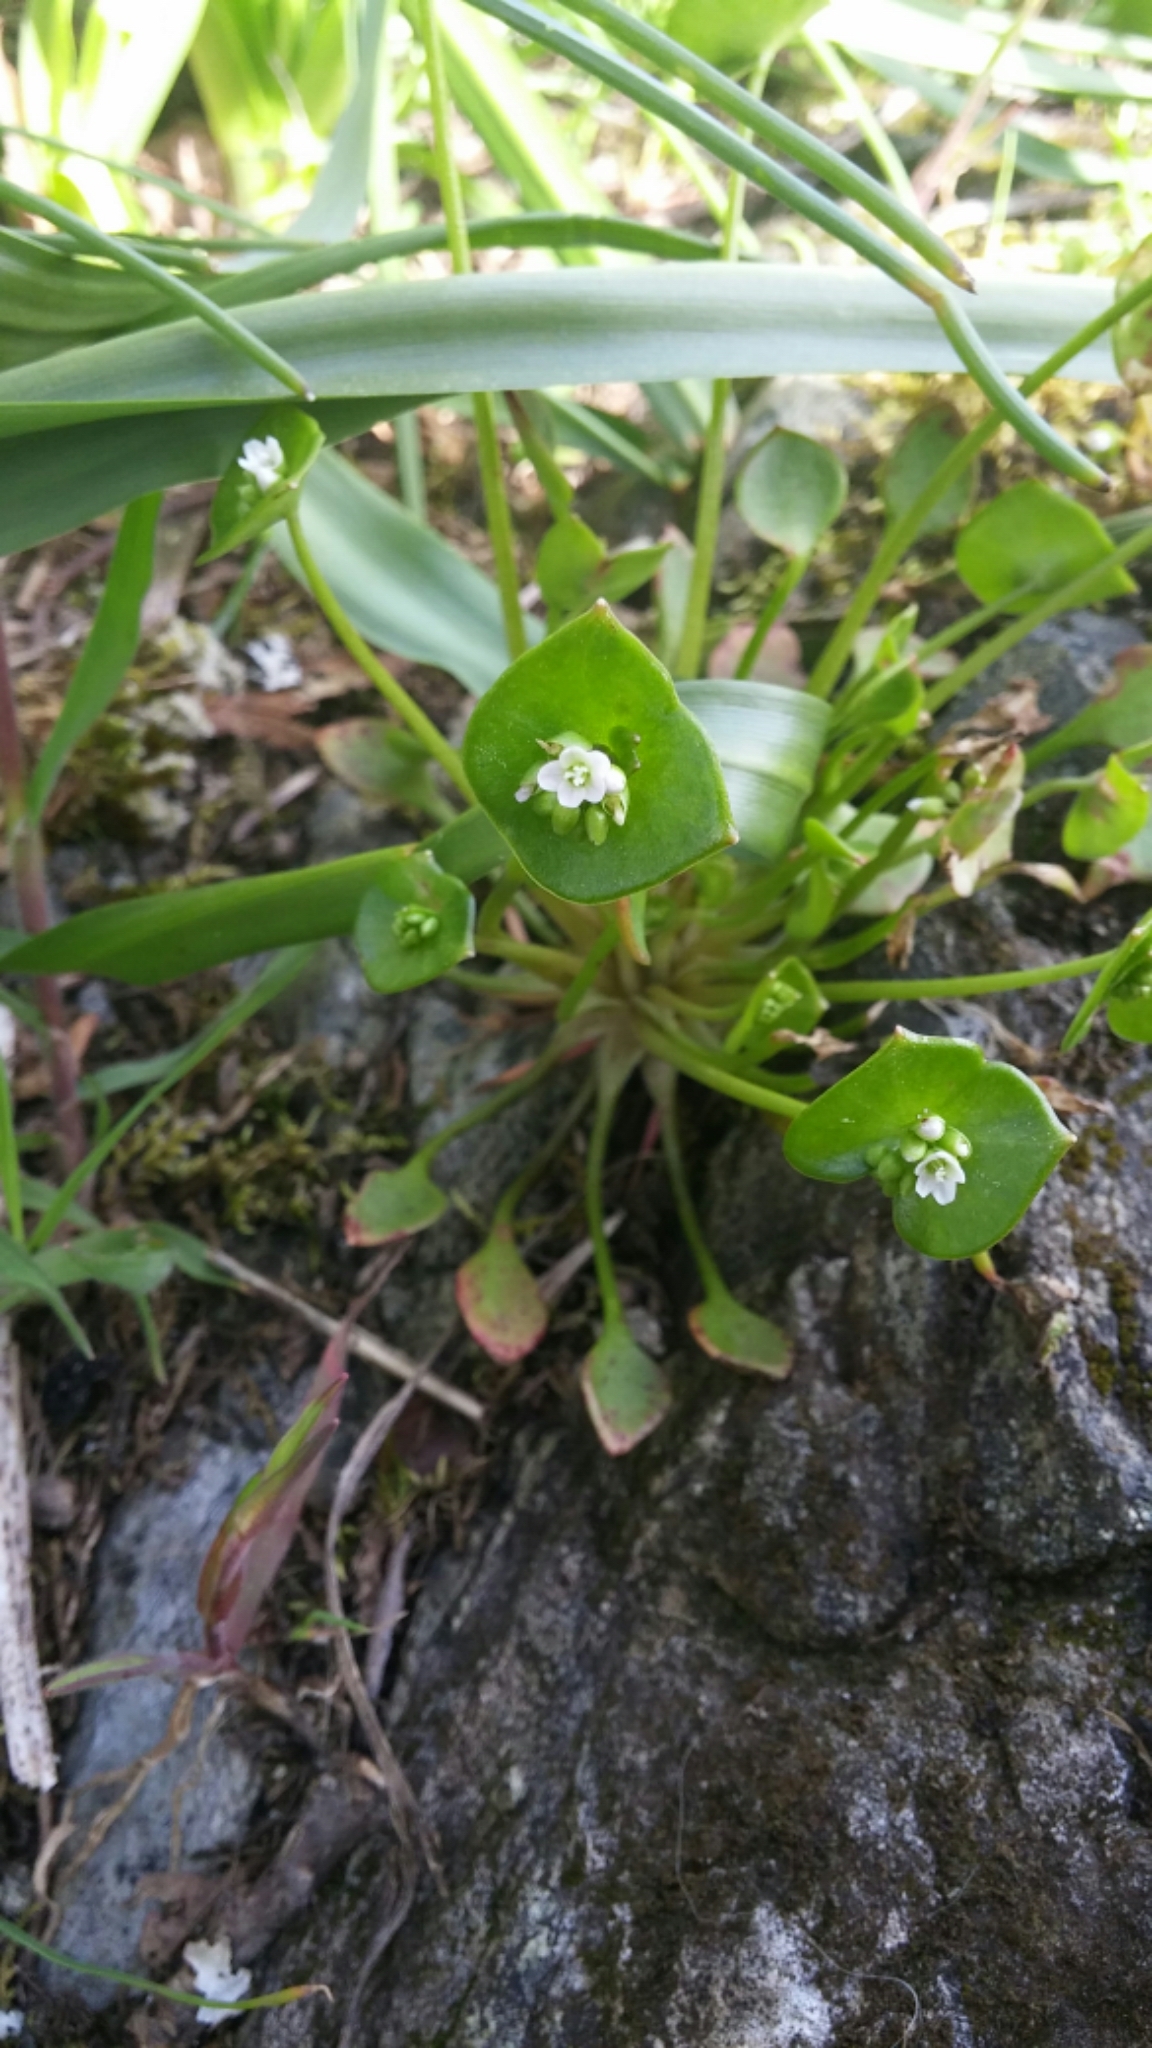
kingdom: Plantae
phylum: Tracheophyta
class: Magnoliopsida
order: Caryophyllales
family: Montiaceae
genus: Claytonia
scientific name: Claytonia perfoliata
